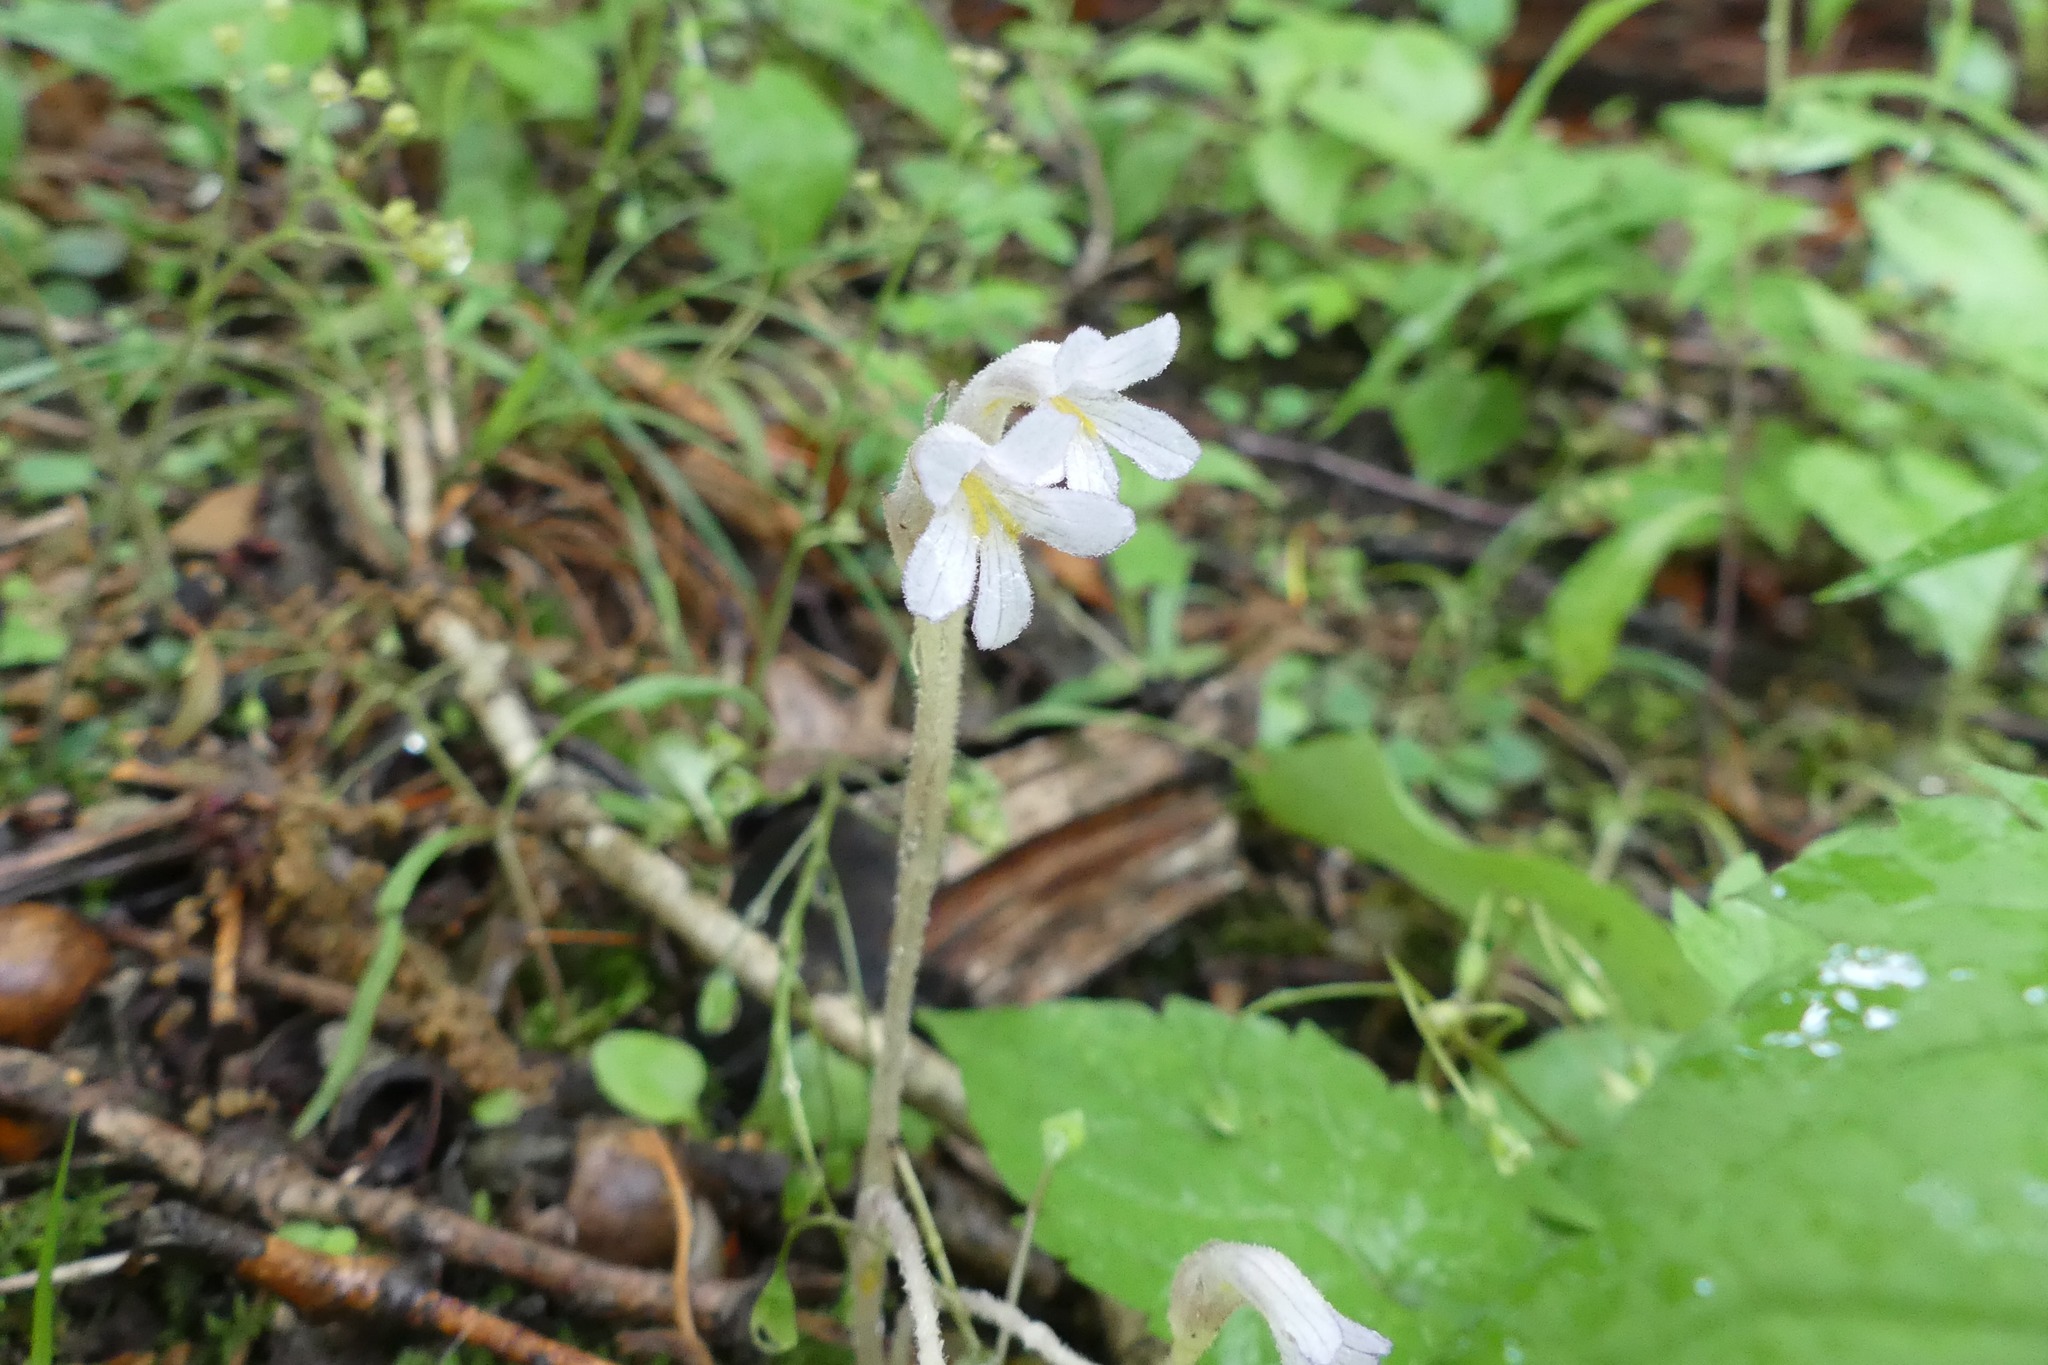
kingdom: Plantae
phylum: Tracheophyta
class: Magnoliopsida
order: Lamiales
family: Orobanchaceae
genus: Aphyllon
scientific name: Aphyllon uniflorum
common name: One-flowered broomrape
